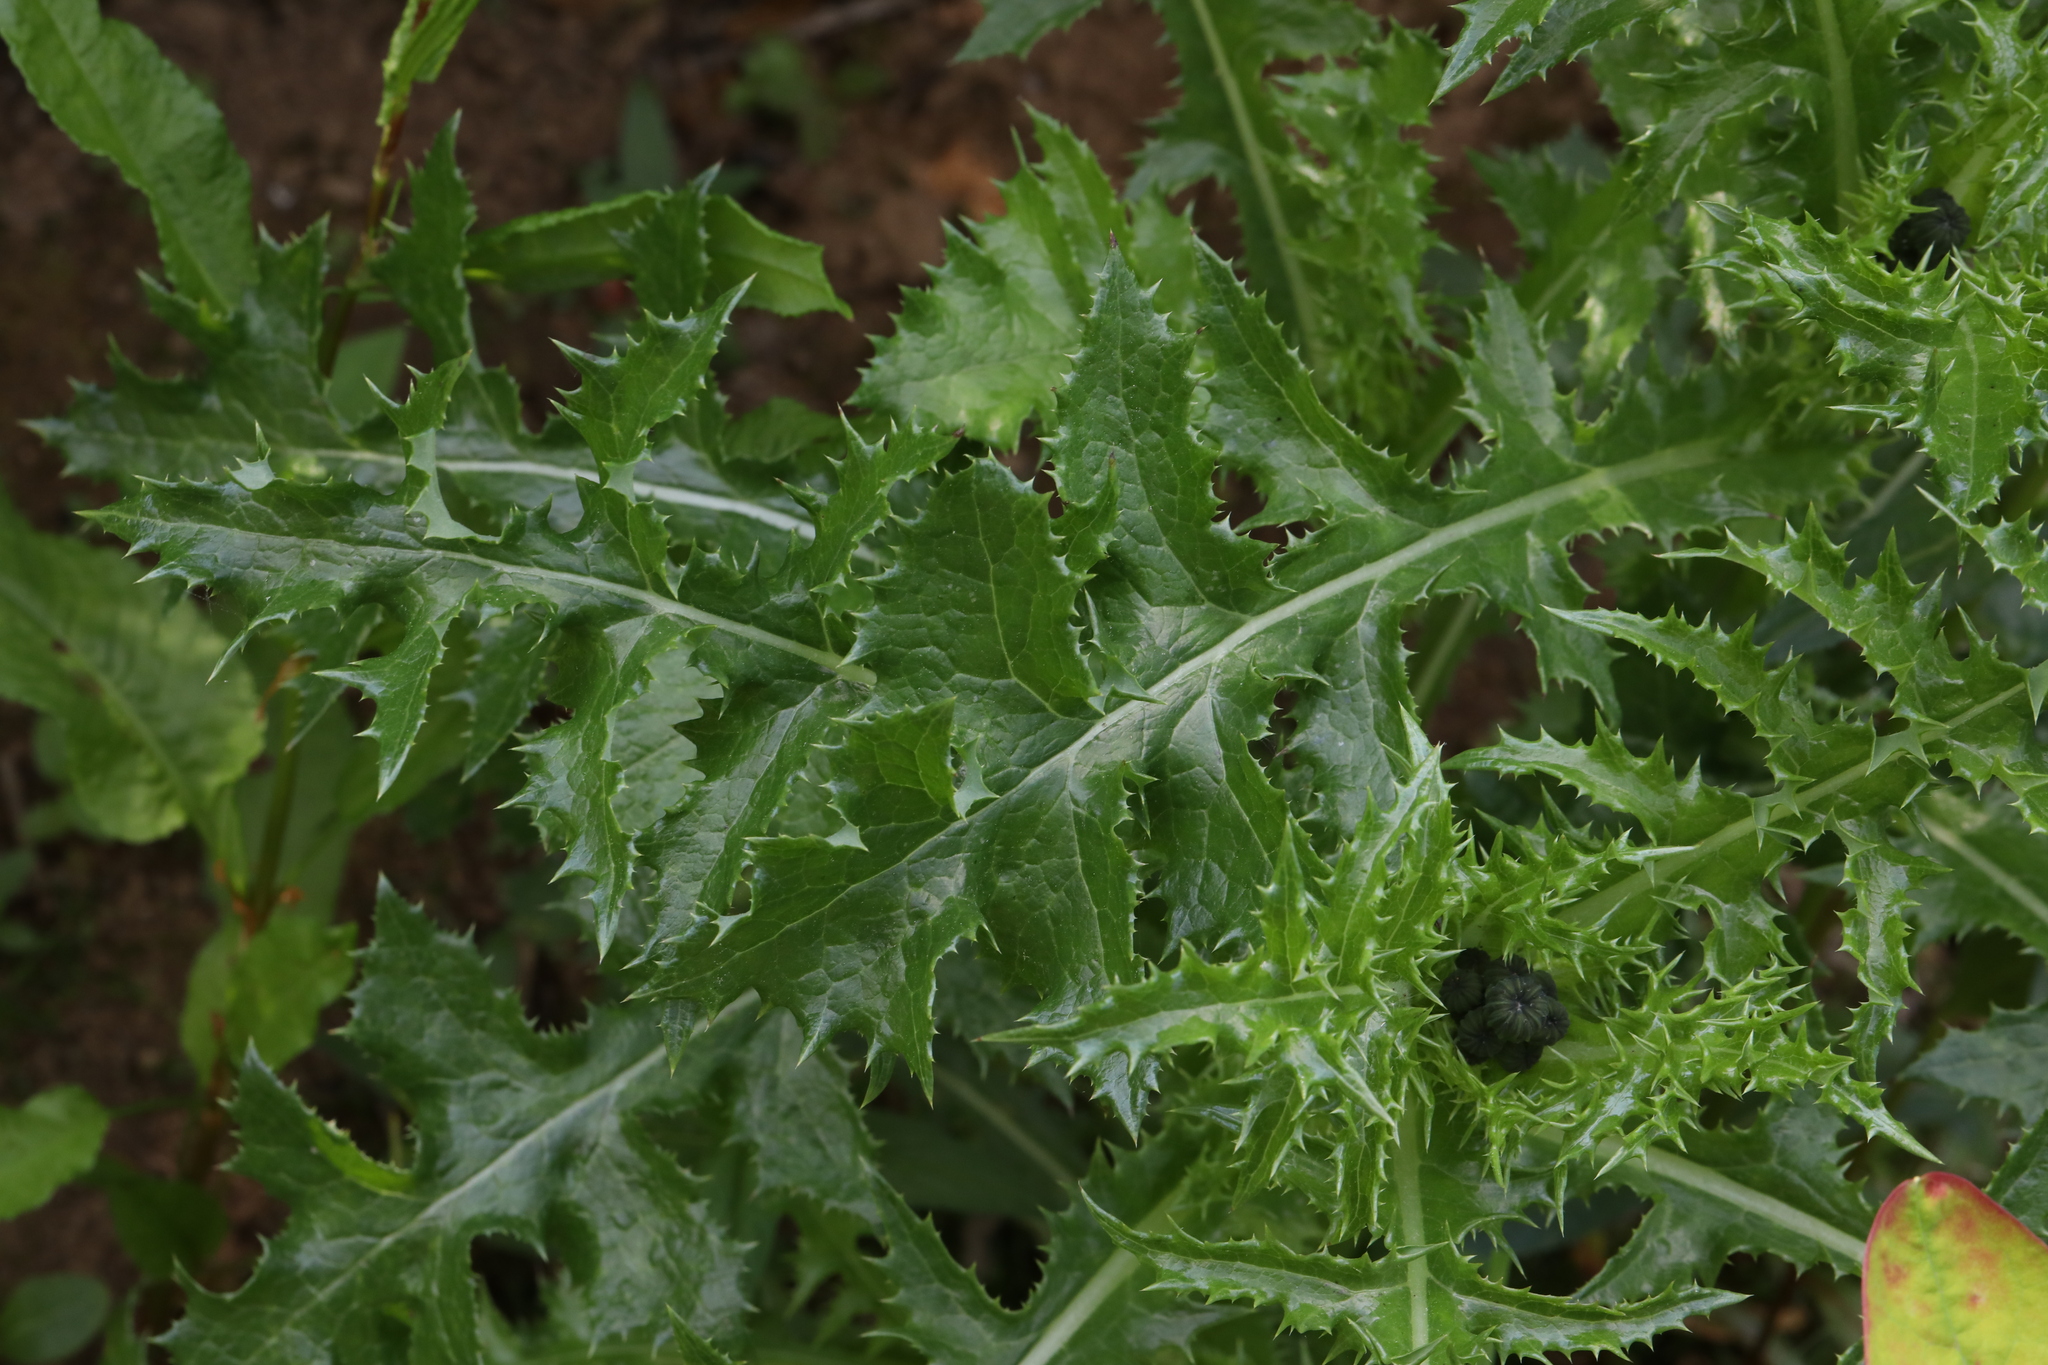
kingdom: Plantae
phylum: Tracheophyta
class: Magnoliopsida
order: Asterales
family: Asteraceae
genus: Sonchus
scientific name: Sonchus asper
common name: Prickly sow-thistle
